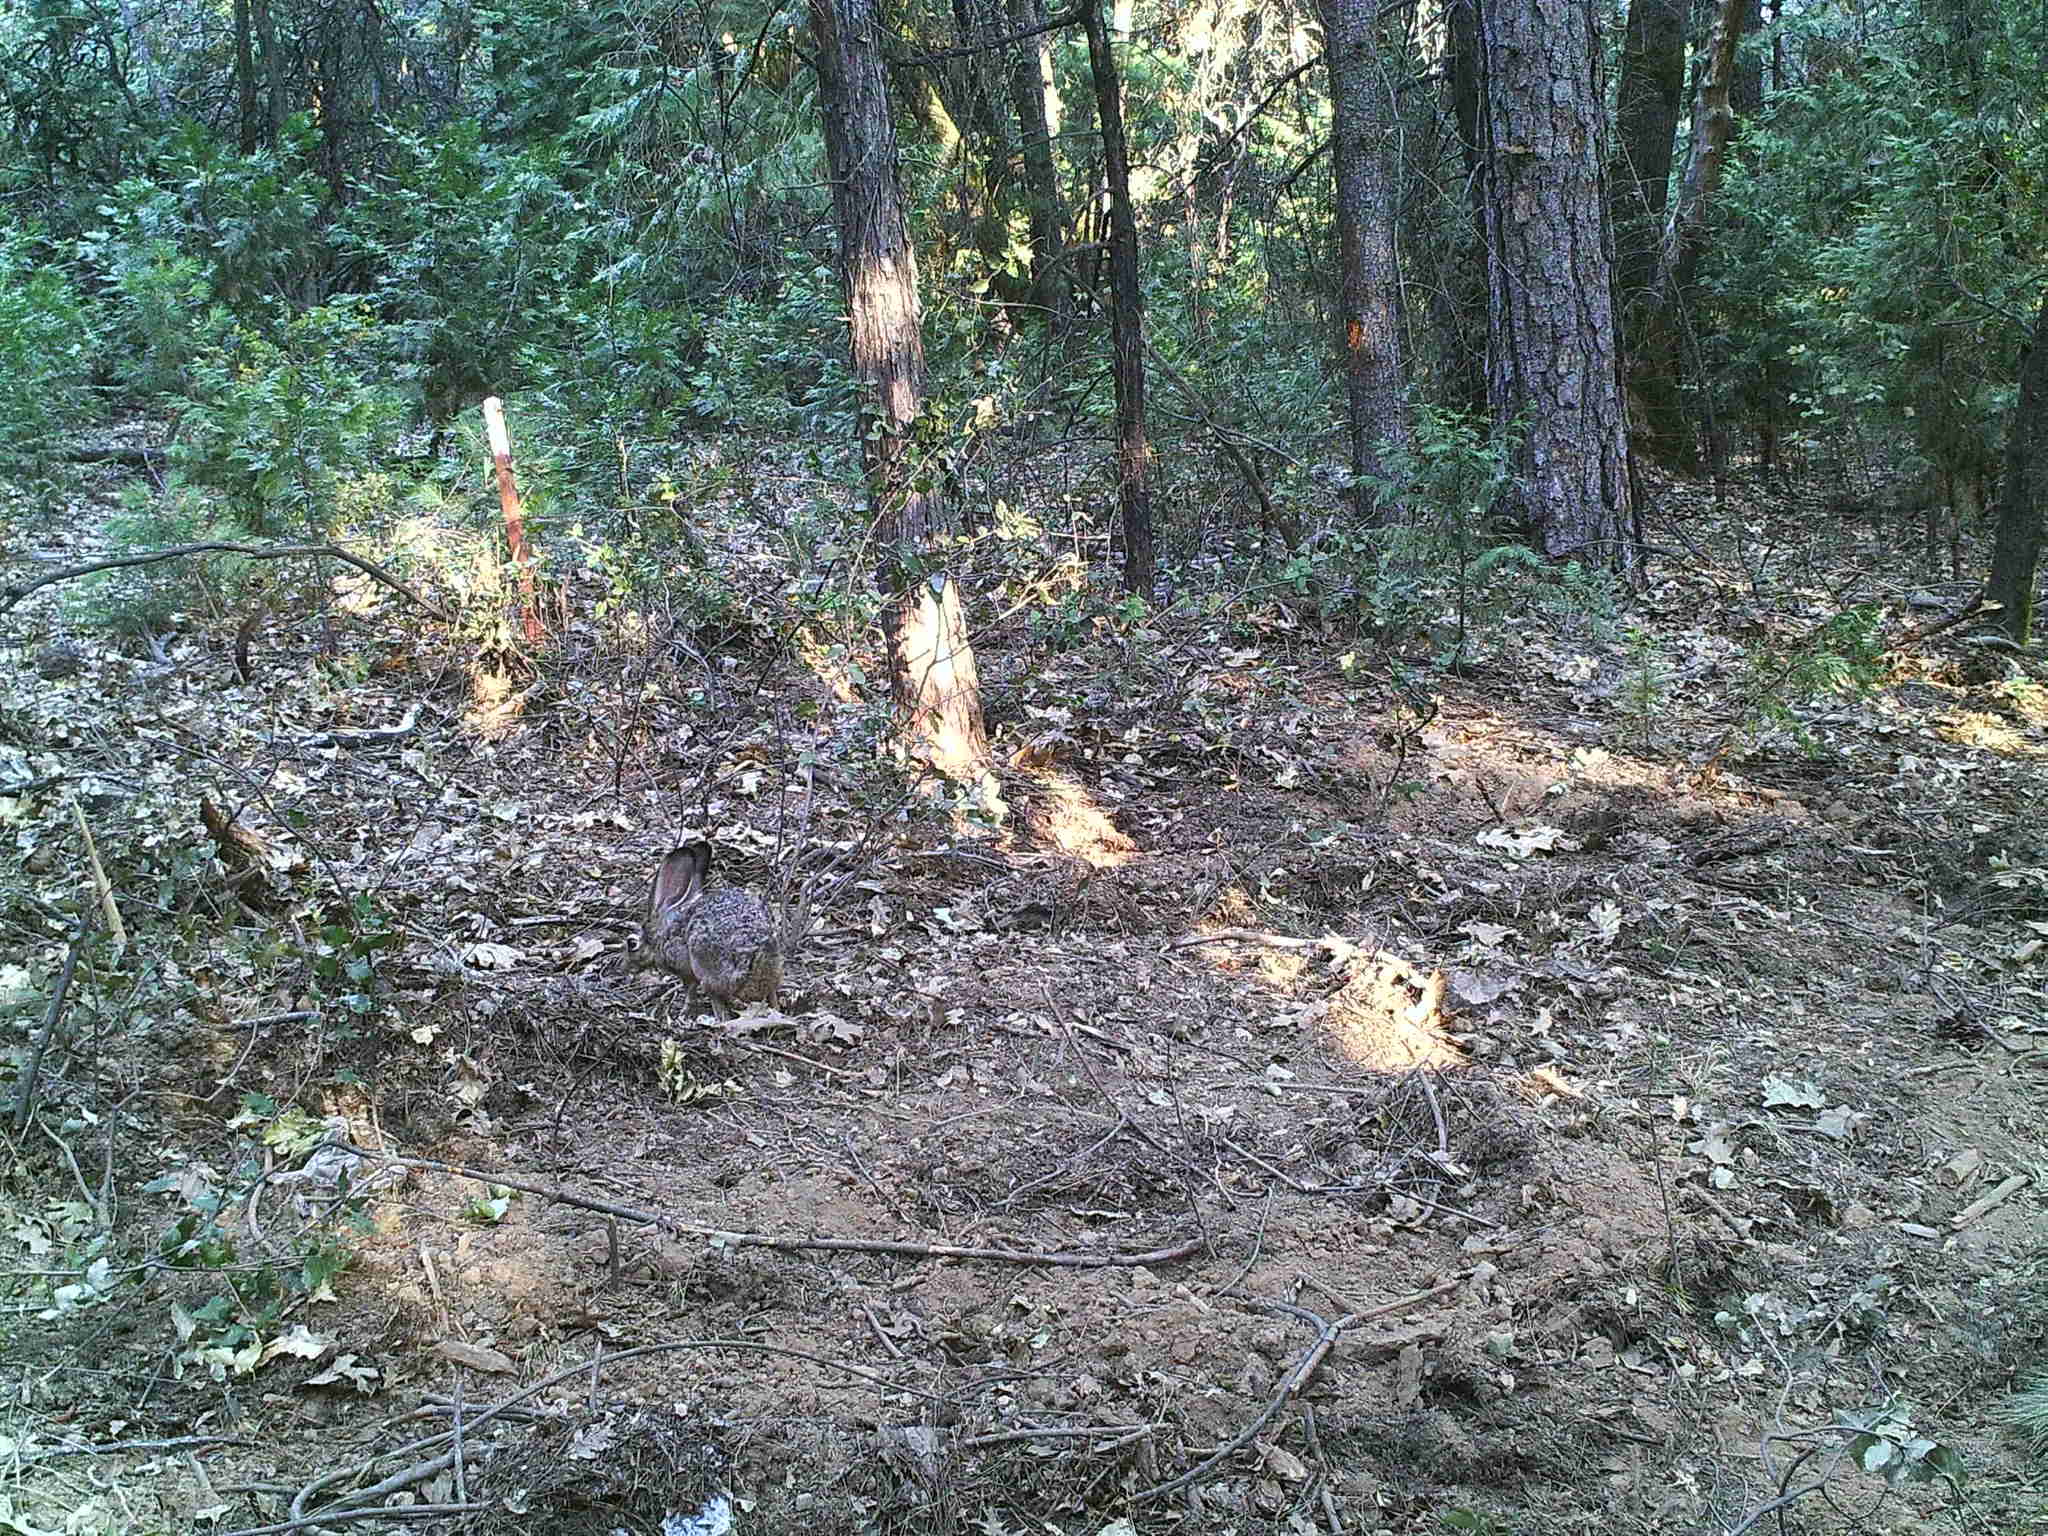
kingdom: Animalia
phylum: Chordata
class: Mammalia
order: Lagomorpha
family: Leporidae
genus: Lepus
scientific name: Lepus californicus
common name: Black-tailed jackrabbit
